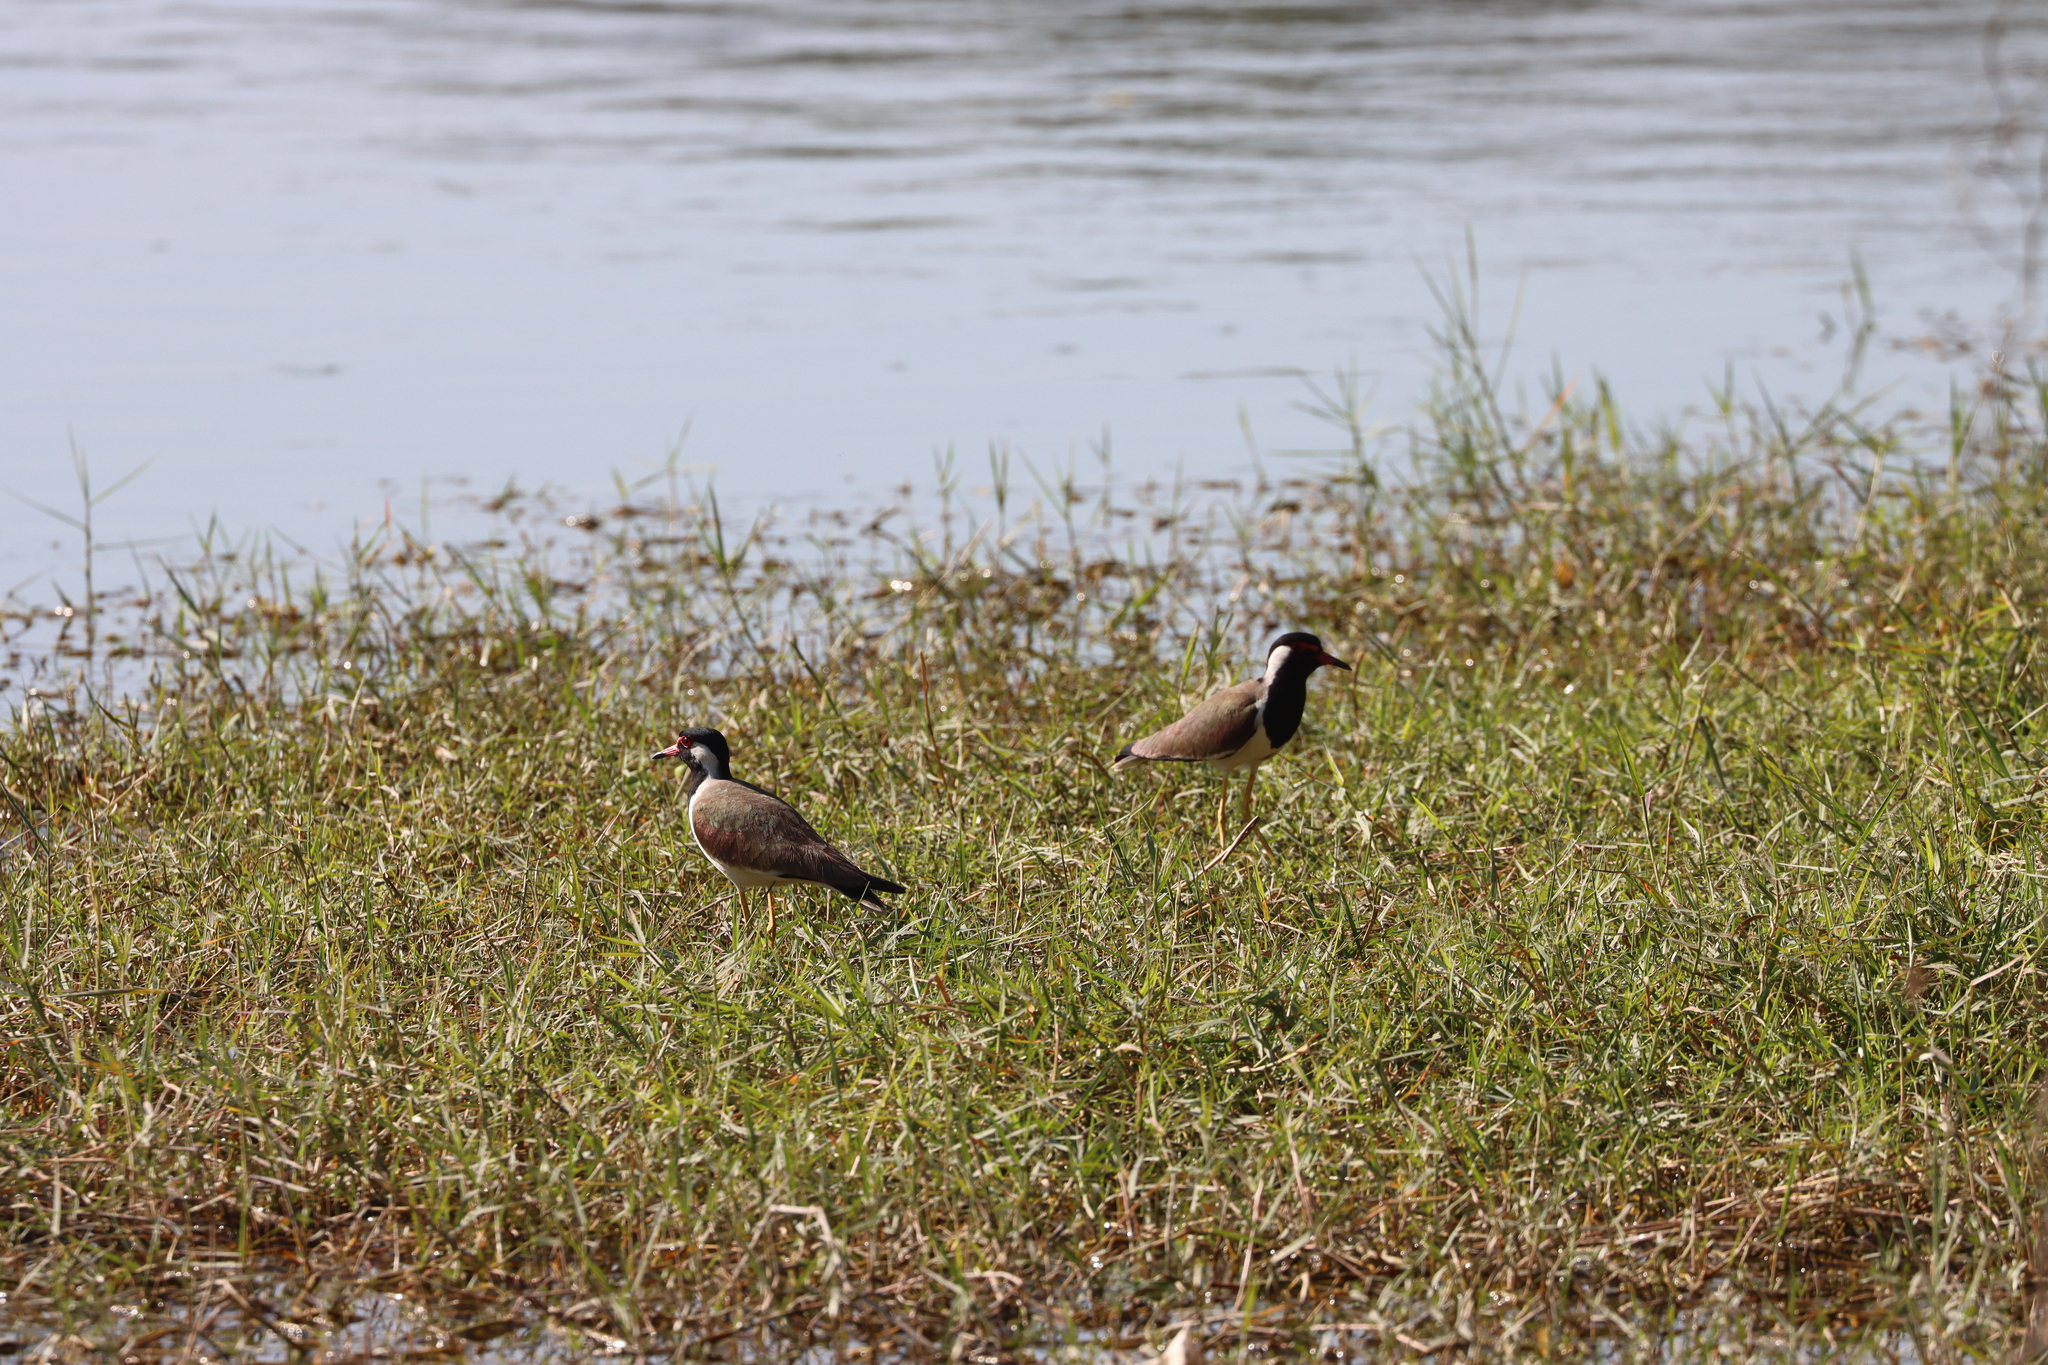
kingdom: Animalia
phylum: Chordata
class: Aves
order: Charadriiformes
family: Charadriidae
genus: Vanellus
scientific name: Vanellus indicus
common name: Red-wattled lapwing
